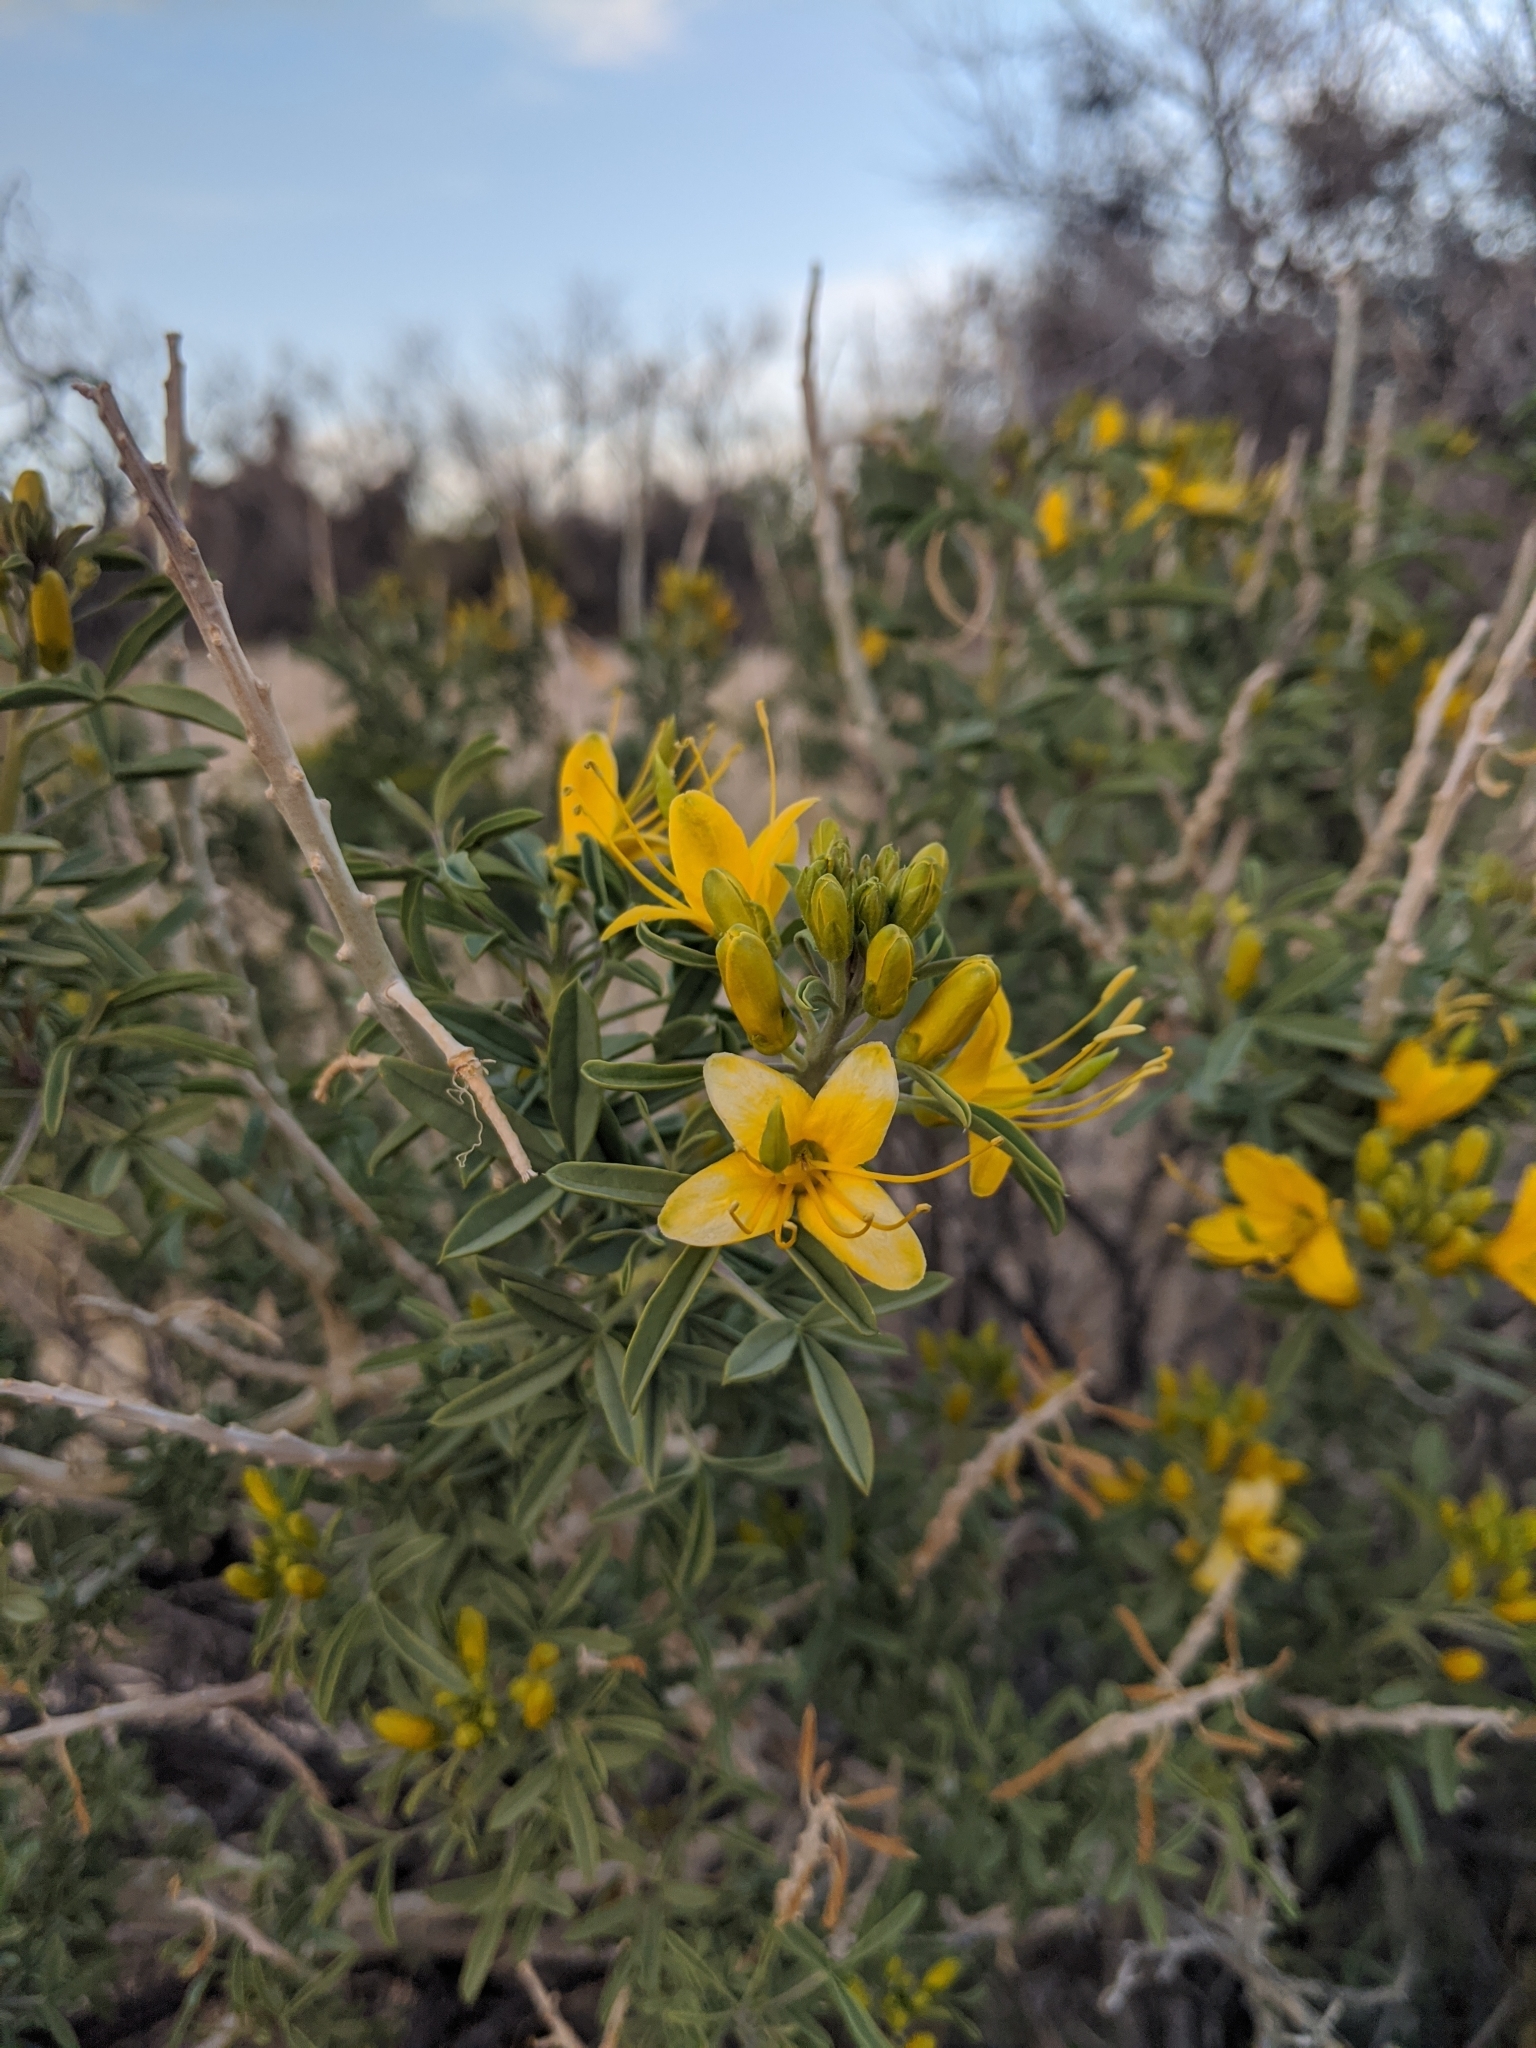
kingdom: Plantae
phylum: Tracheophyta
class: Magnoliopsida
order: Brassicales
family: Cleomaceae
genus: Cleomella
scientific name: Cleomella arborea
